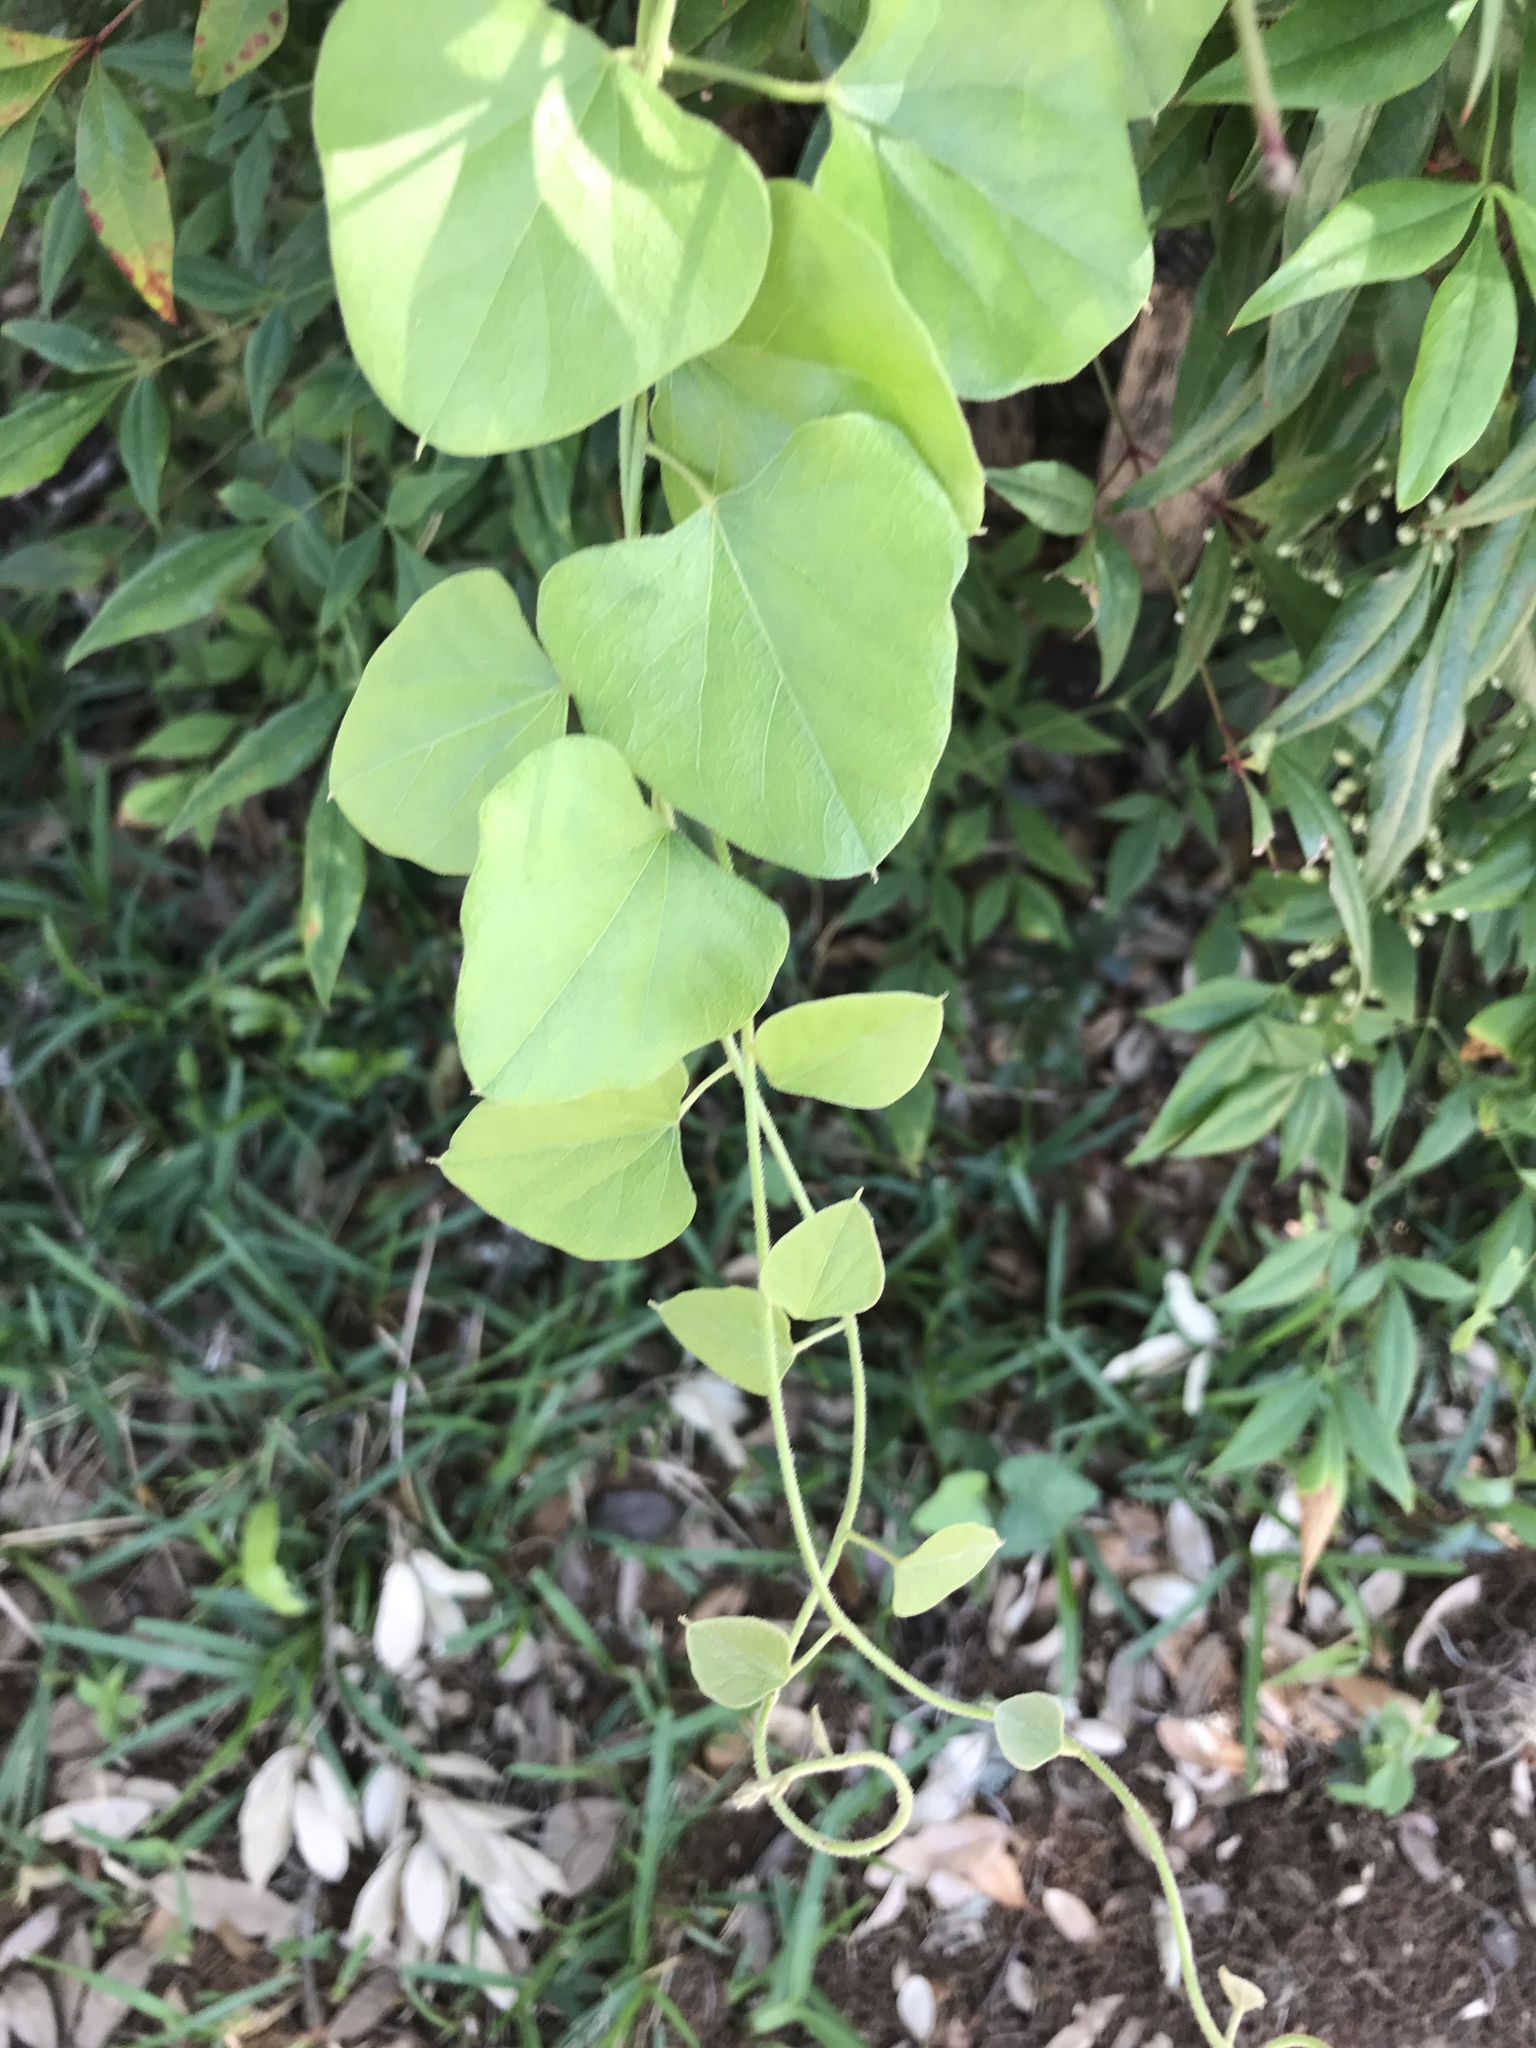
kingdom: Plantae
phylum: Tracheophyta
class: Magnoliopsida
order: Ranunculales
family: Menispermaceae
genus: Cocculus
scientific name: Cocculus carolinus
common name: Carolina moonseed
